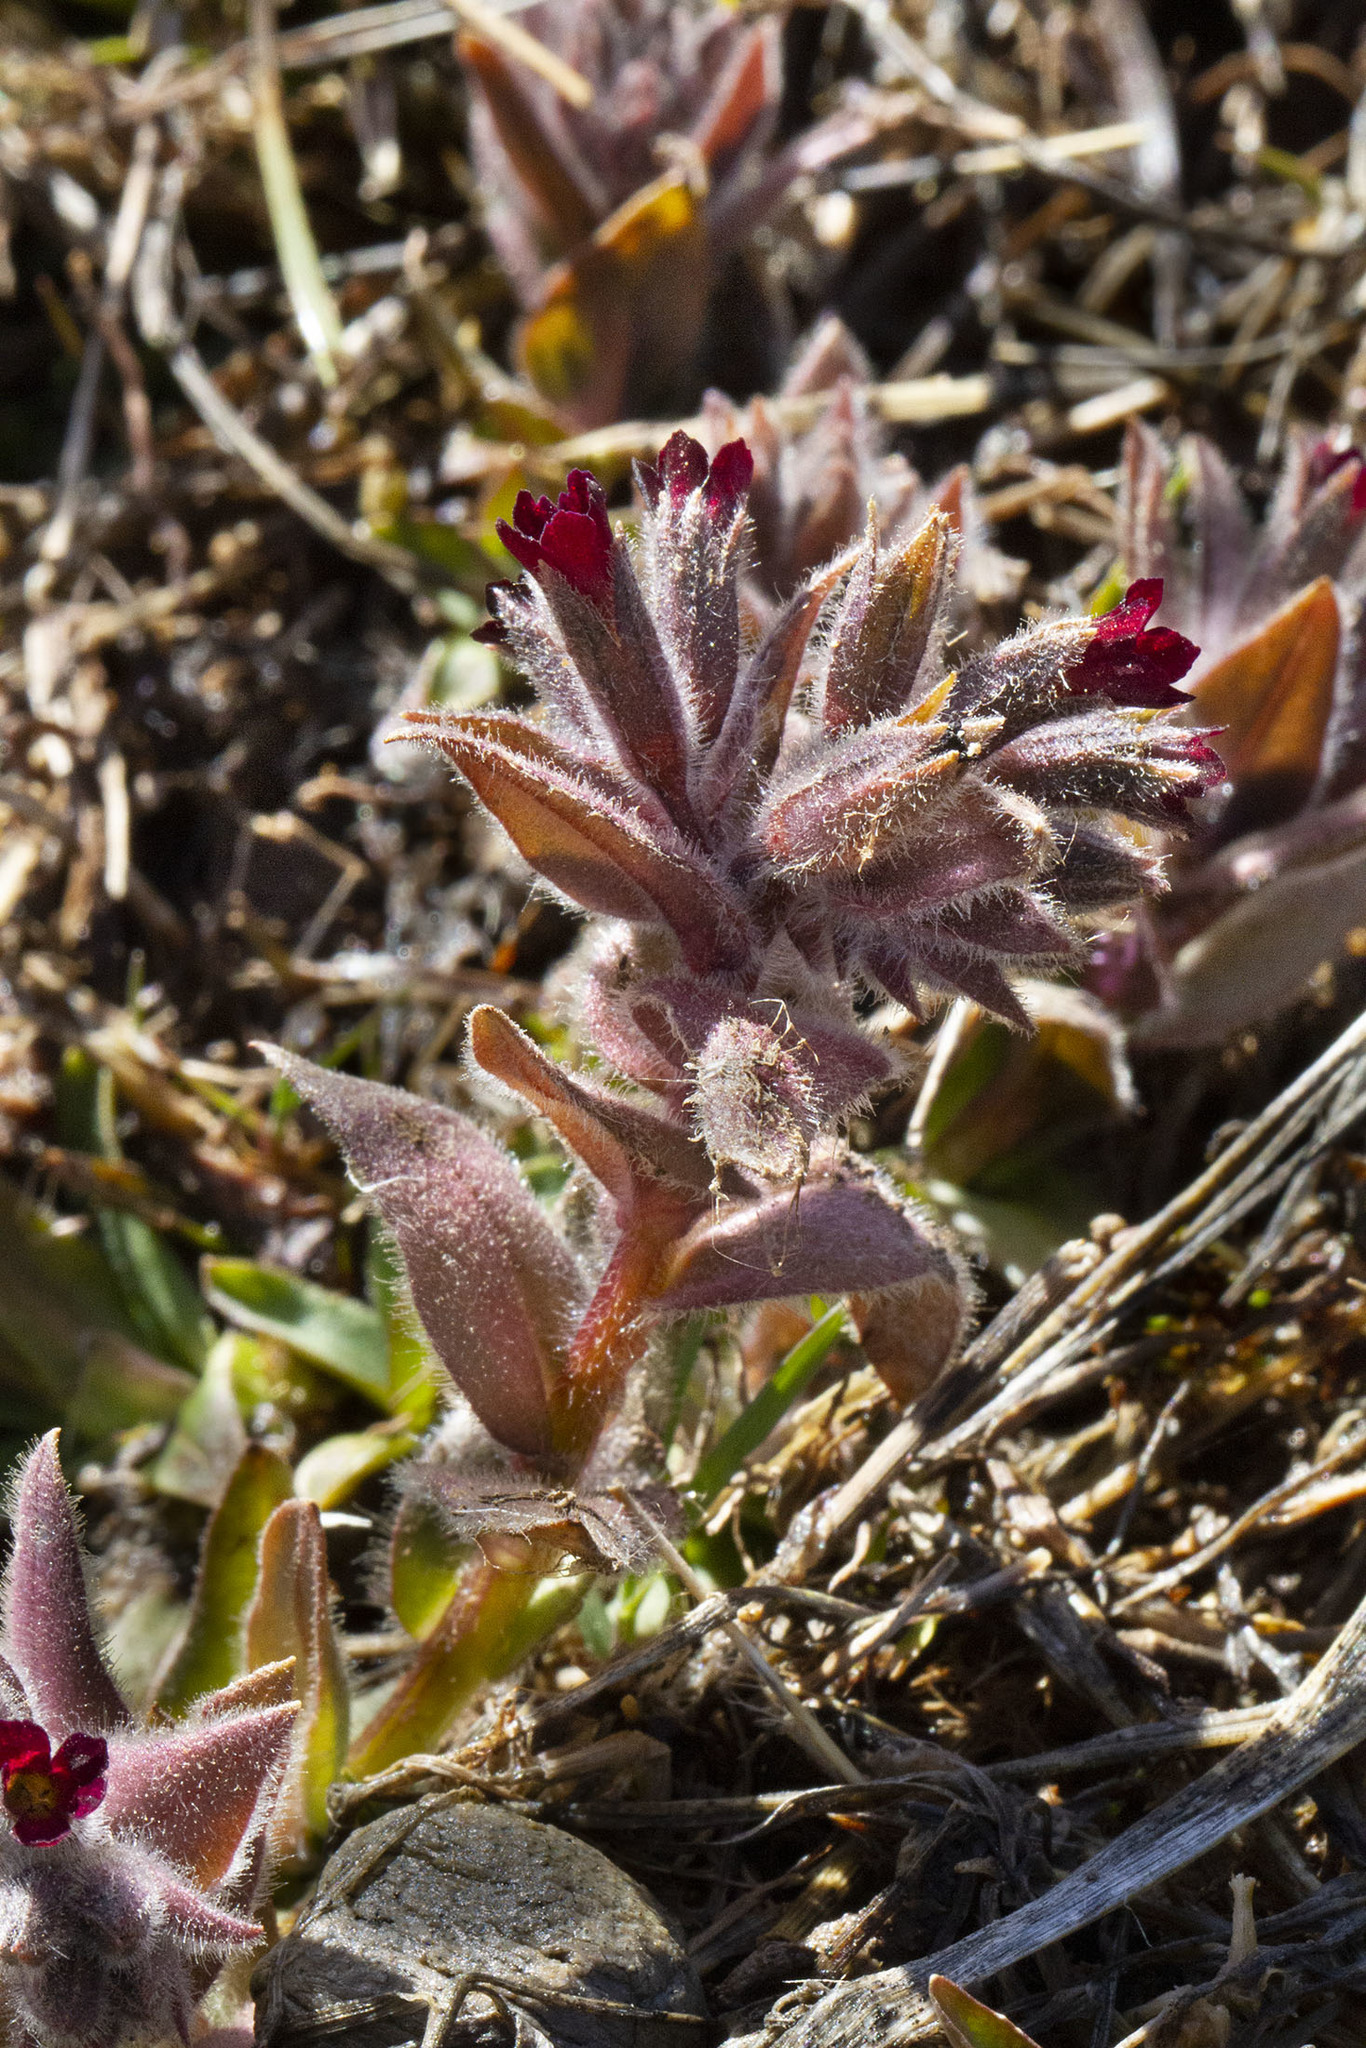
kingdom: Plantae
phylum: Tracheophyta
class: Magnoliopsida
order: Boraginales
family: Boraginaceae
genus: Nonea
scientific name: Nonea pulla
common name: Brown nonea
